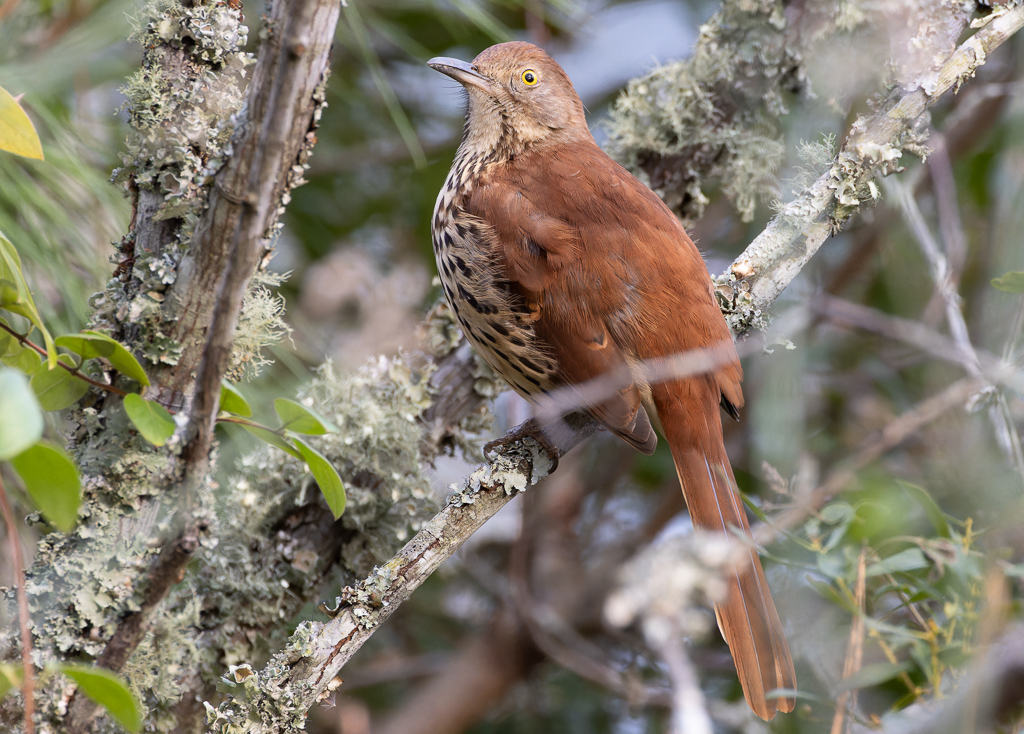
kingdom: Animalia
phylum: Chordata
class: Aves
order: Passeriformes
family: Mimidae
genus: Toxostoma
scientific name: Toxostoma rufum
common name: Brown thrasher
